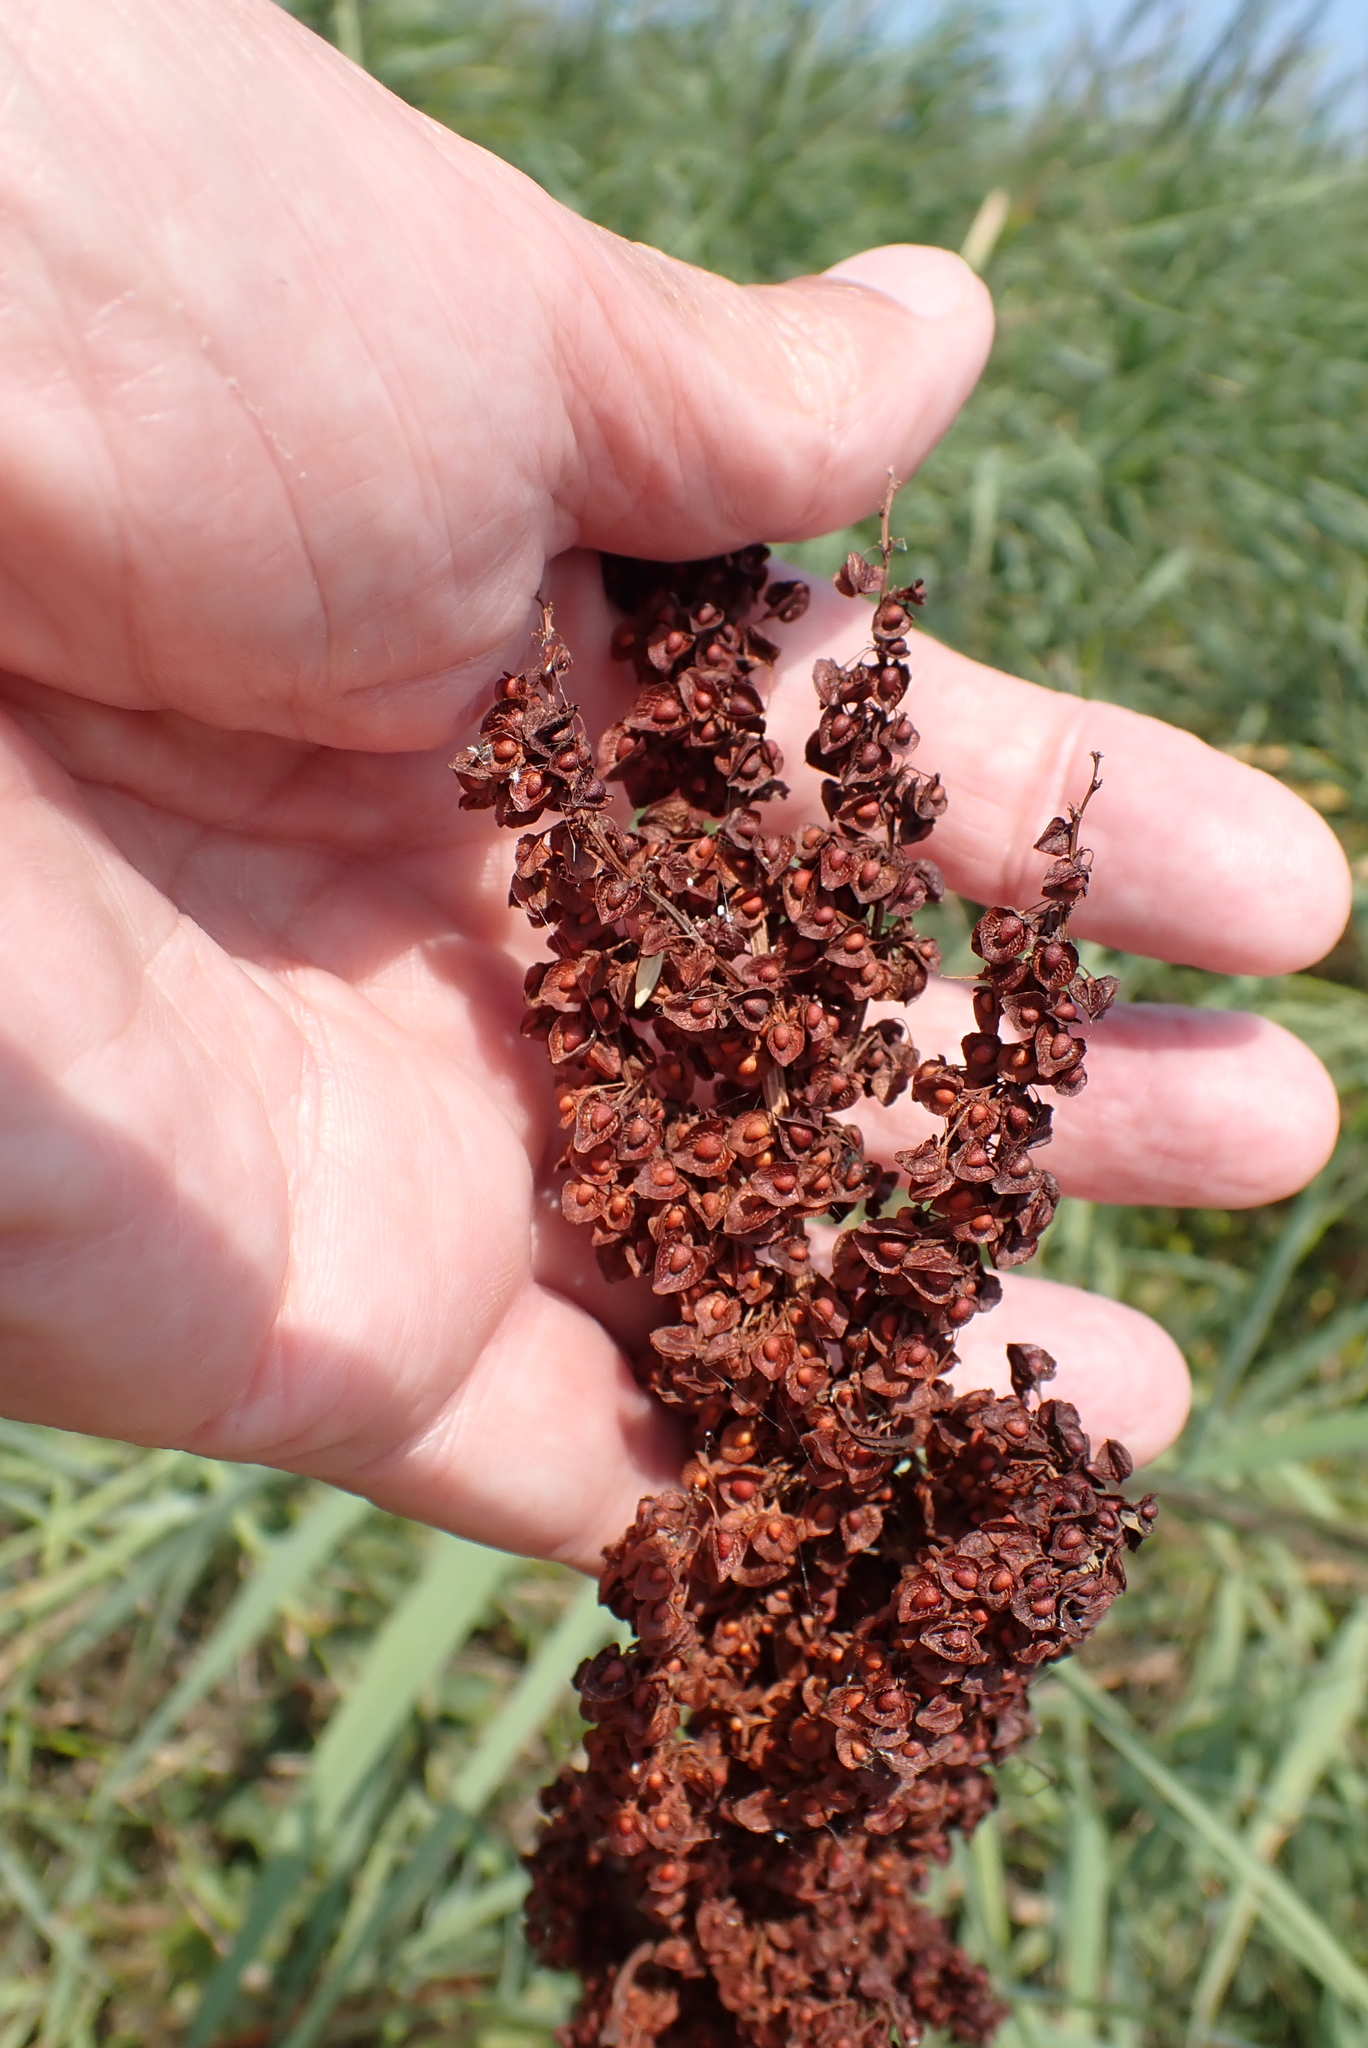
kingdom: Plantae
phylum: Tracheophyta
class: Magnoliopsida
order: Caryophyllales
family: Polygonaceae
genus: Rumex
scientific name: Rumex crispus
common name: Curled dock
